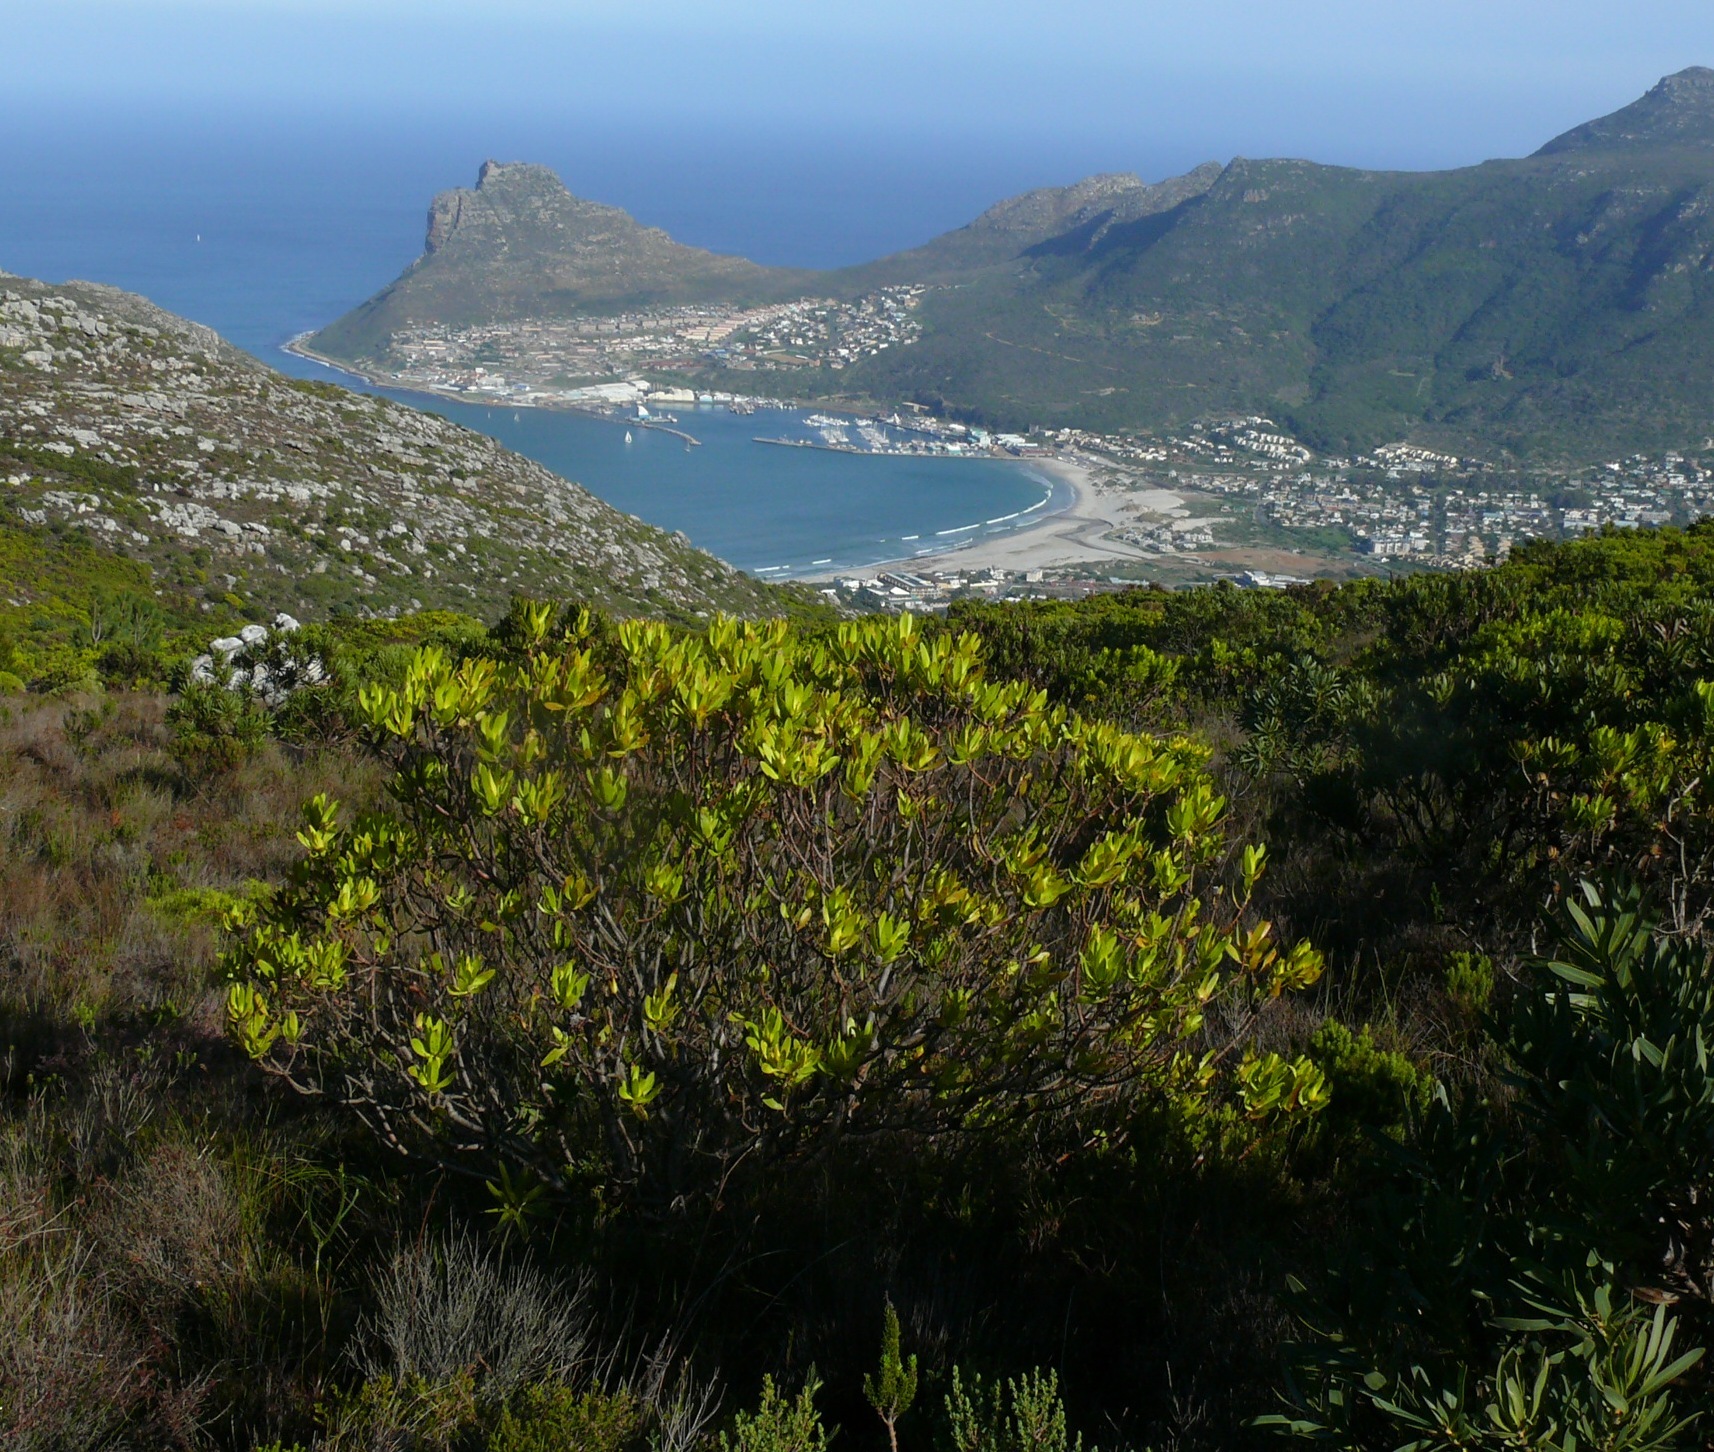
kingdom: Plantae
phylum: Tracheophyta
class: Magnoliopsida
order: Proteales
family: Proteaceae
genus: Leucadendron
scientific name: Leucadendron laureolum
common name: Golden sunshinebush
